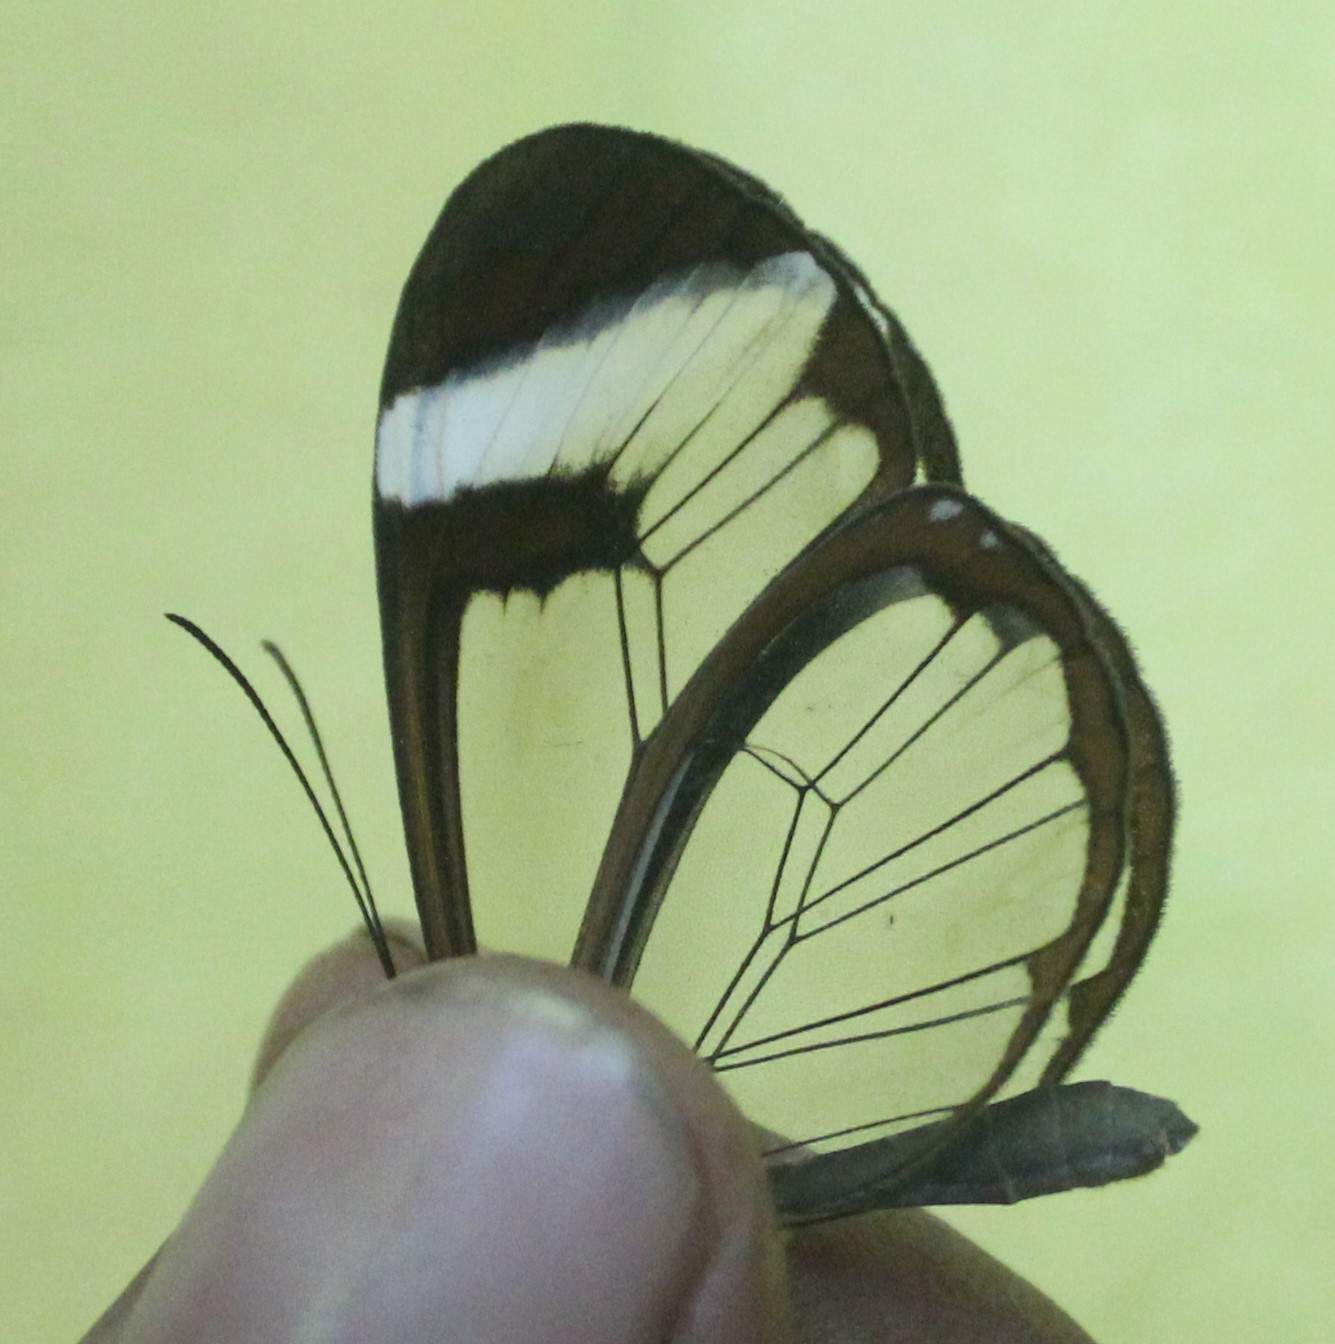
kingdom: Animalia
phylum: Arthropoda
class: Insecta
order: Lepidoptera
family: Nymphalidae
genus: Greta
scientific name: Greta morgane
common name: Thick-tipped greta
